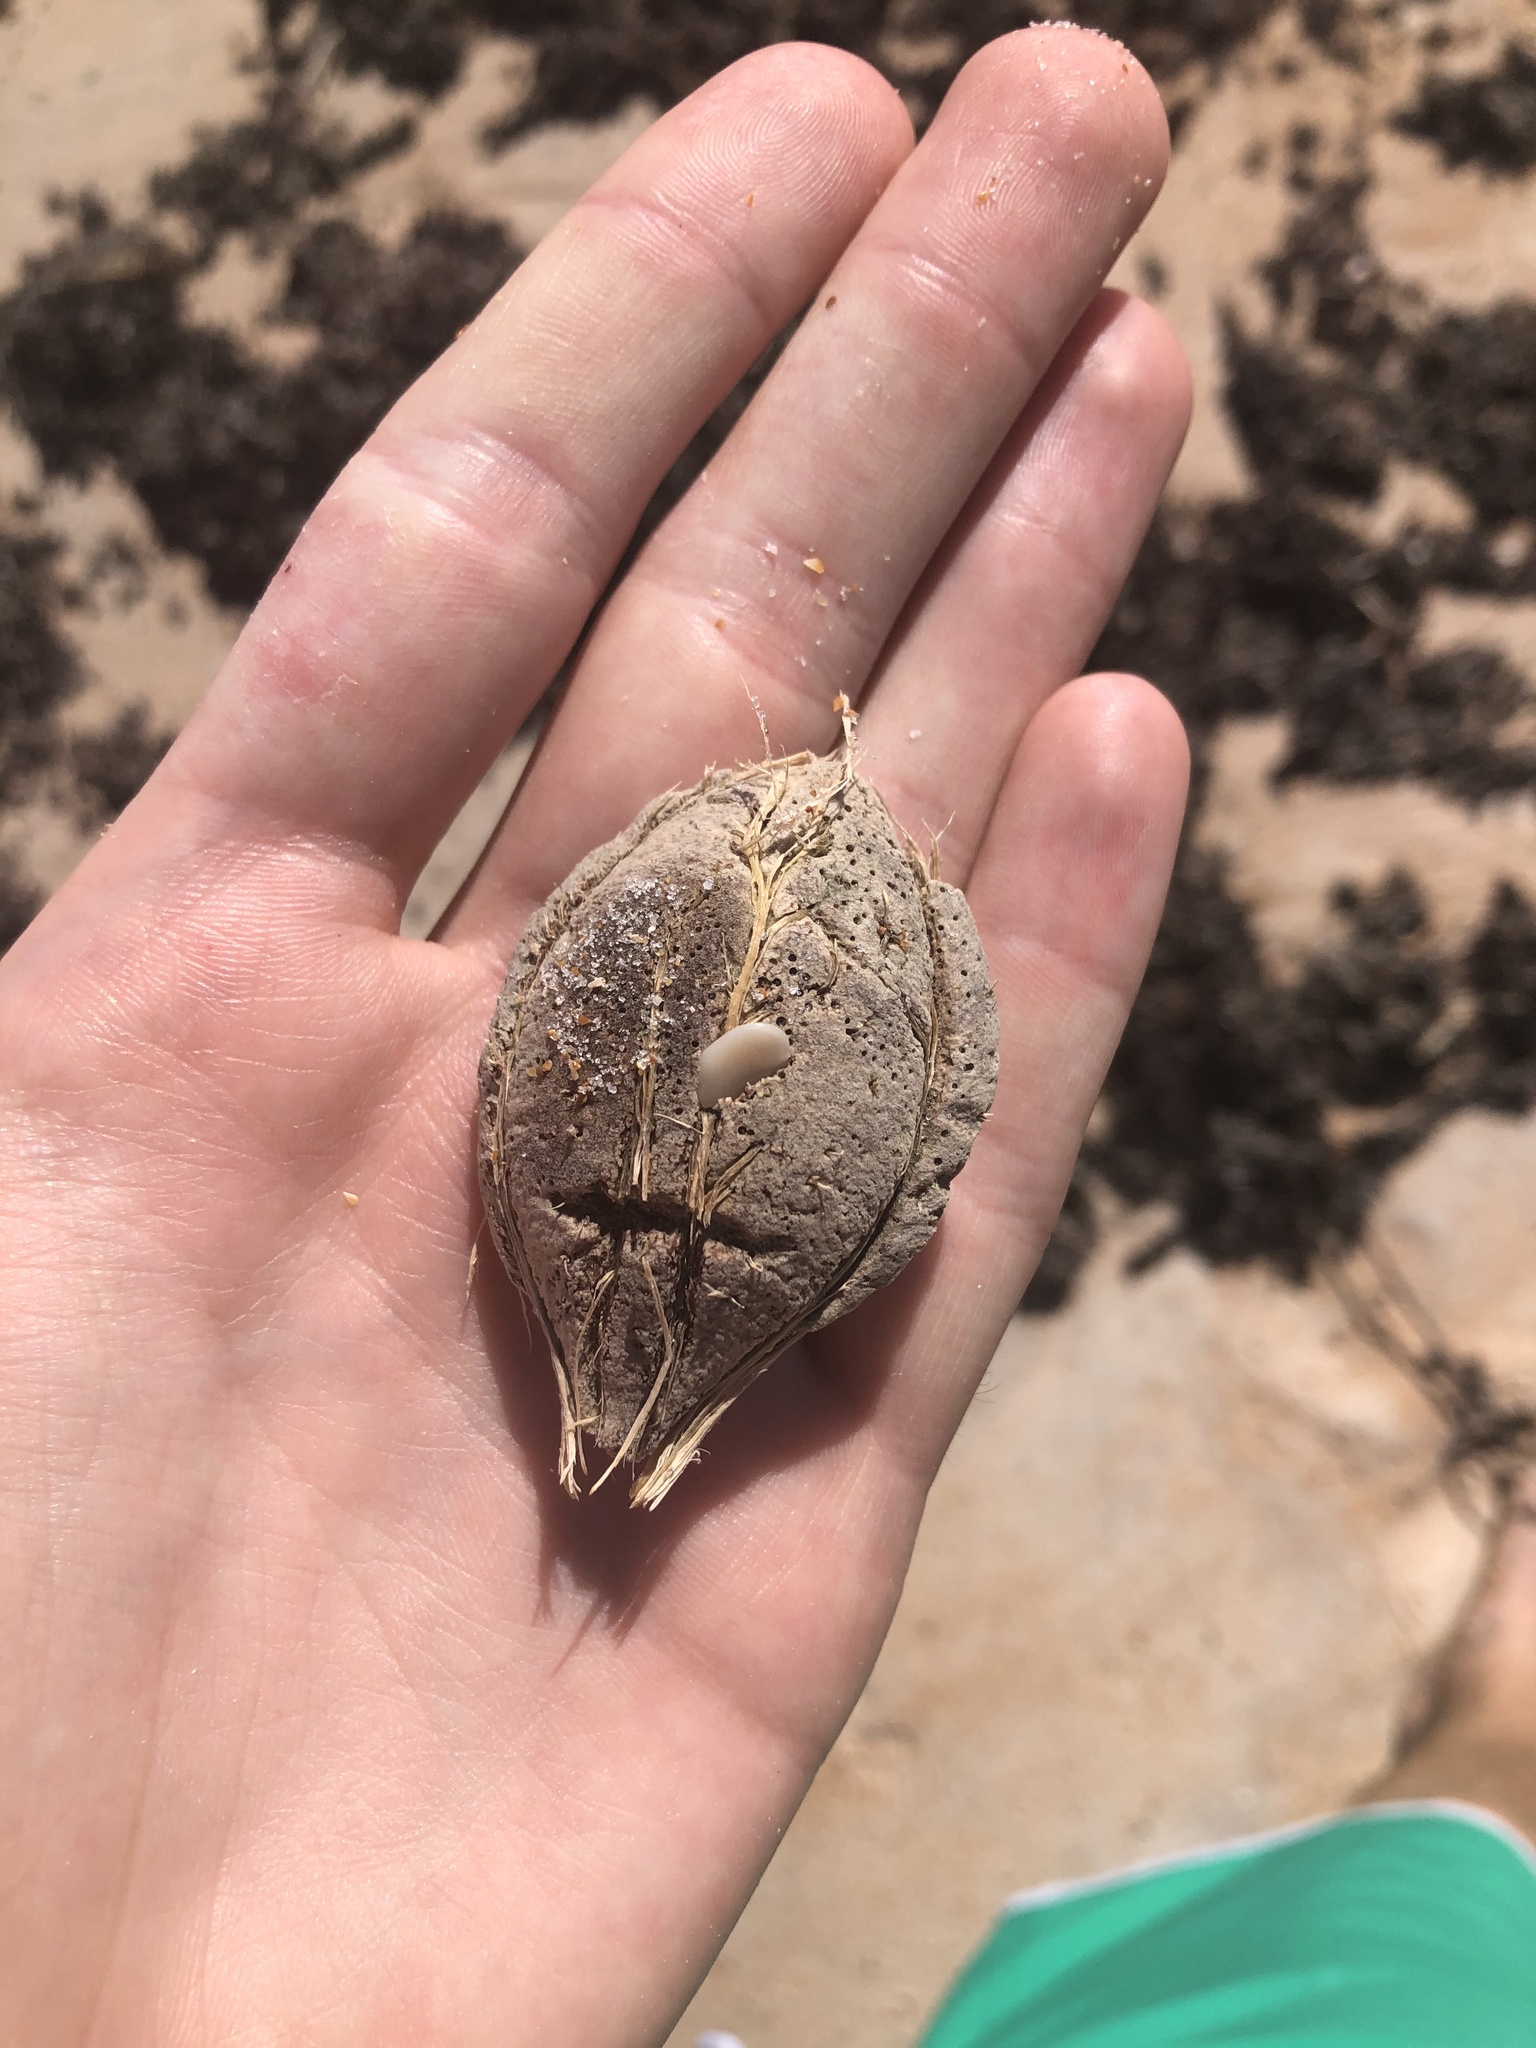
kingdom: Plantae
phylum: Tracheophyta
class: Magnoliopsida
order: Myrtales
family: Combretaceae
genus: Terminalia
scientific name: Terminalia catappa
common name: Tropical almond
